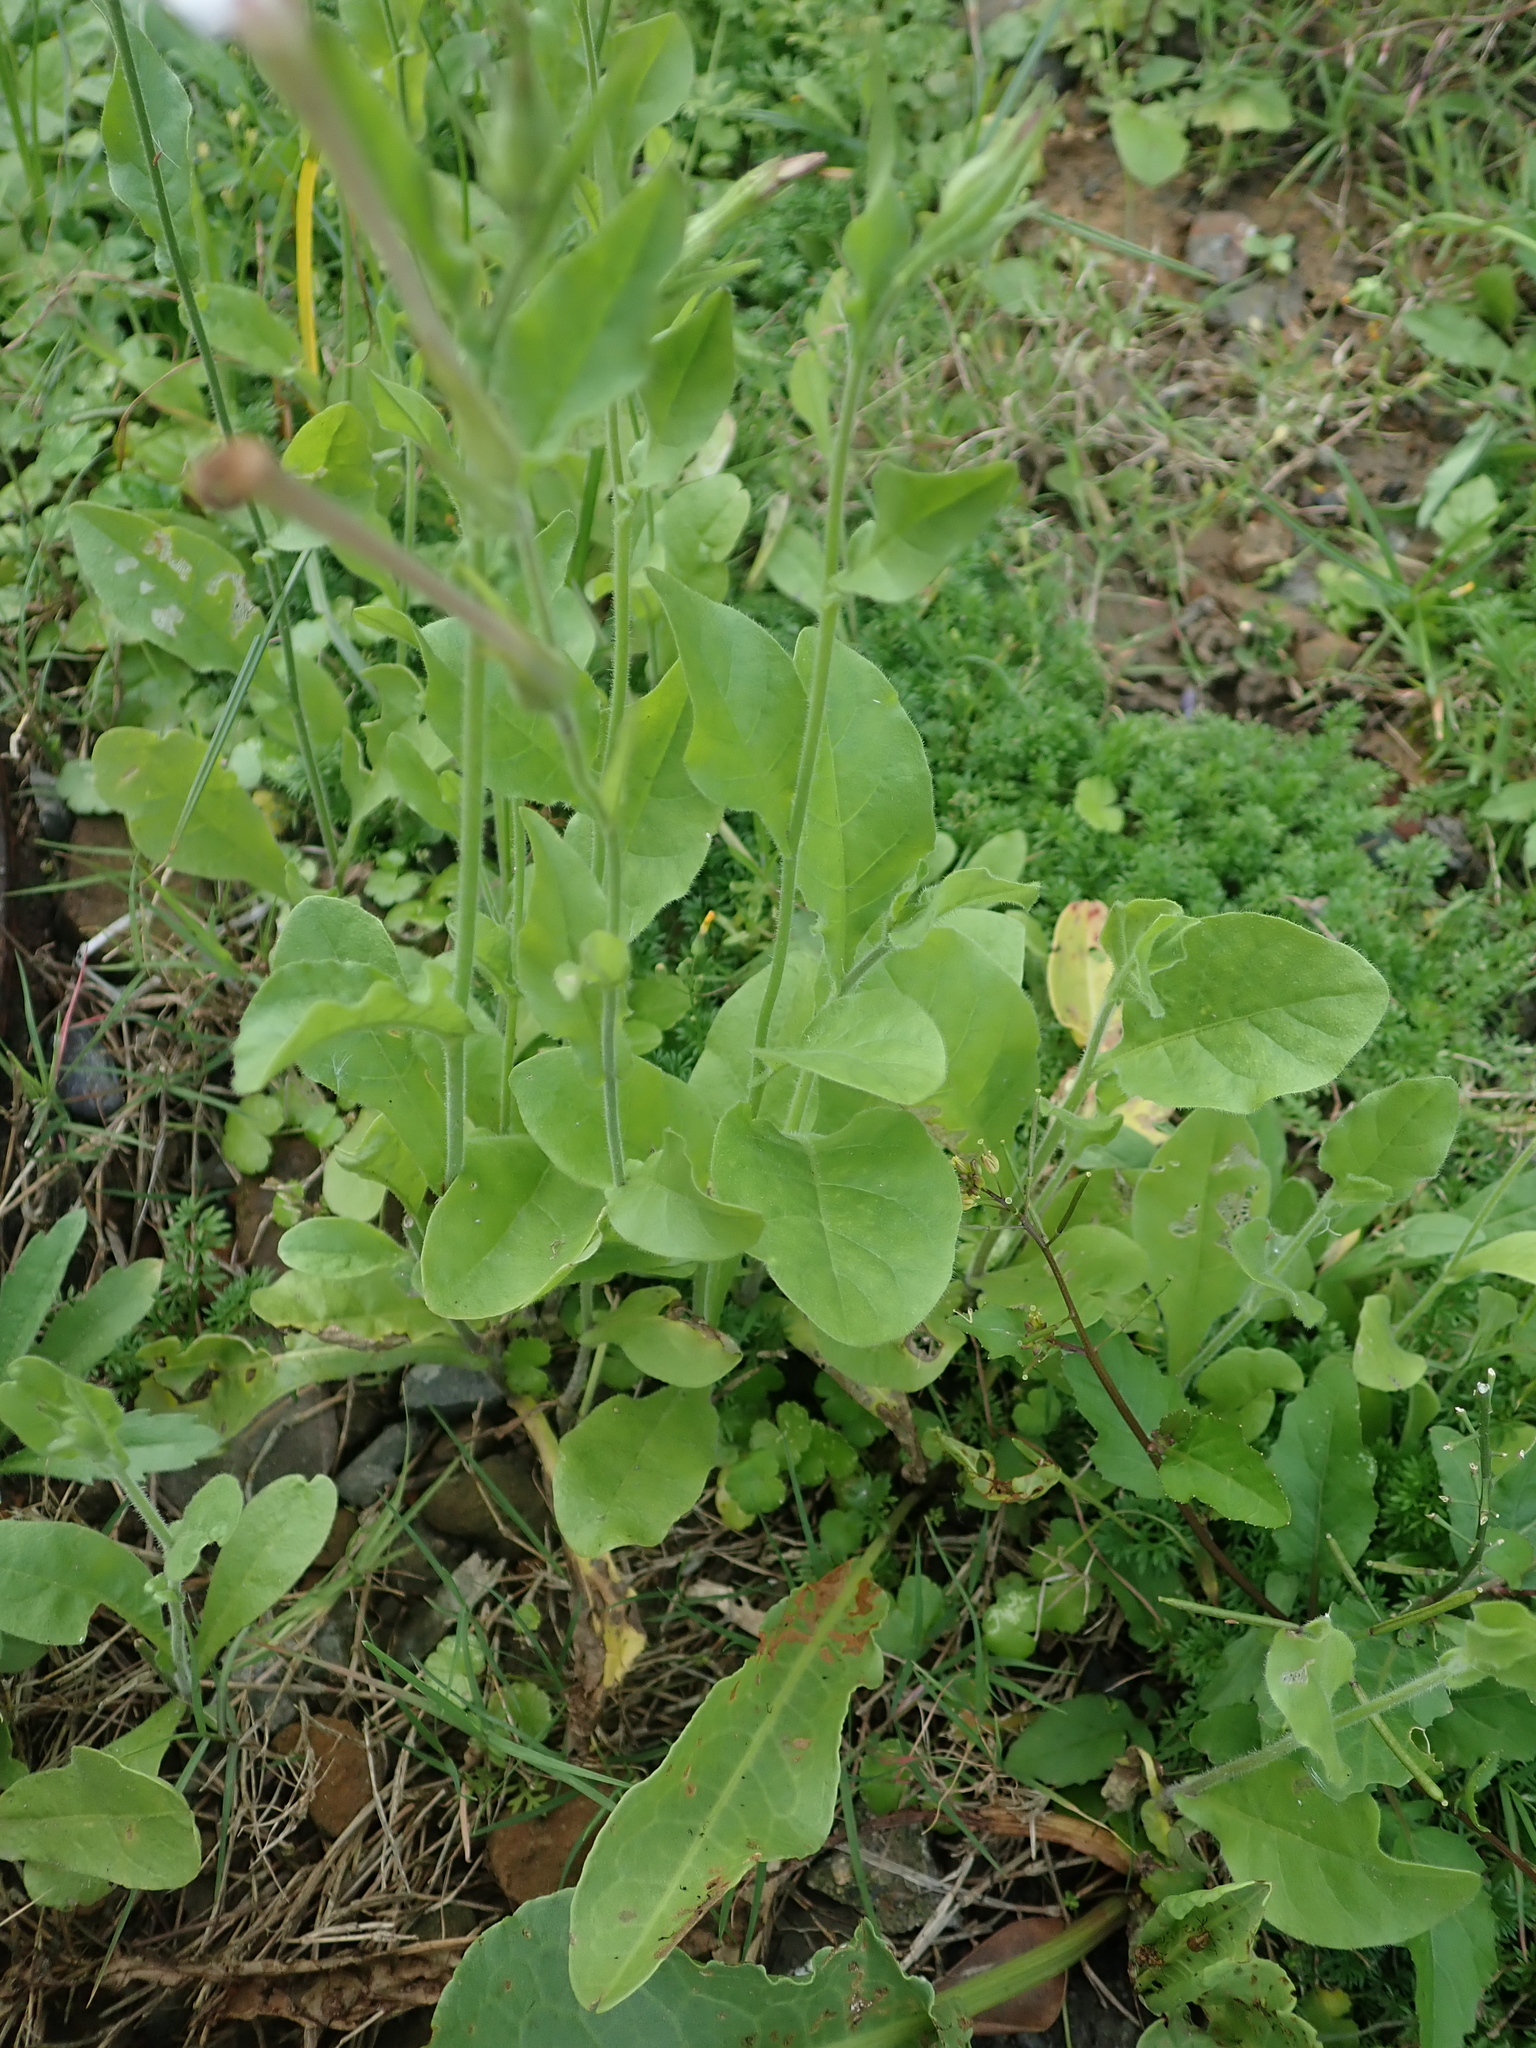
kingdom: Plantae
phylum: Tracheophyta
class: Magnoliopsida
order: Solanales
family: Solanaceae
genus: Nicotiana
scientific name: Nicotiana plumbaginifolia
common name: Tex-mex tobacco
